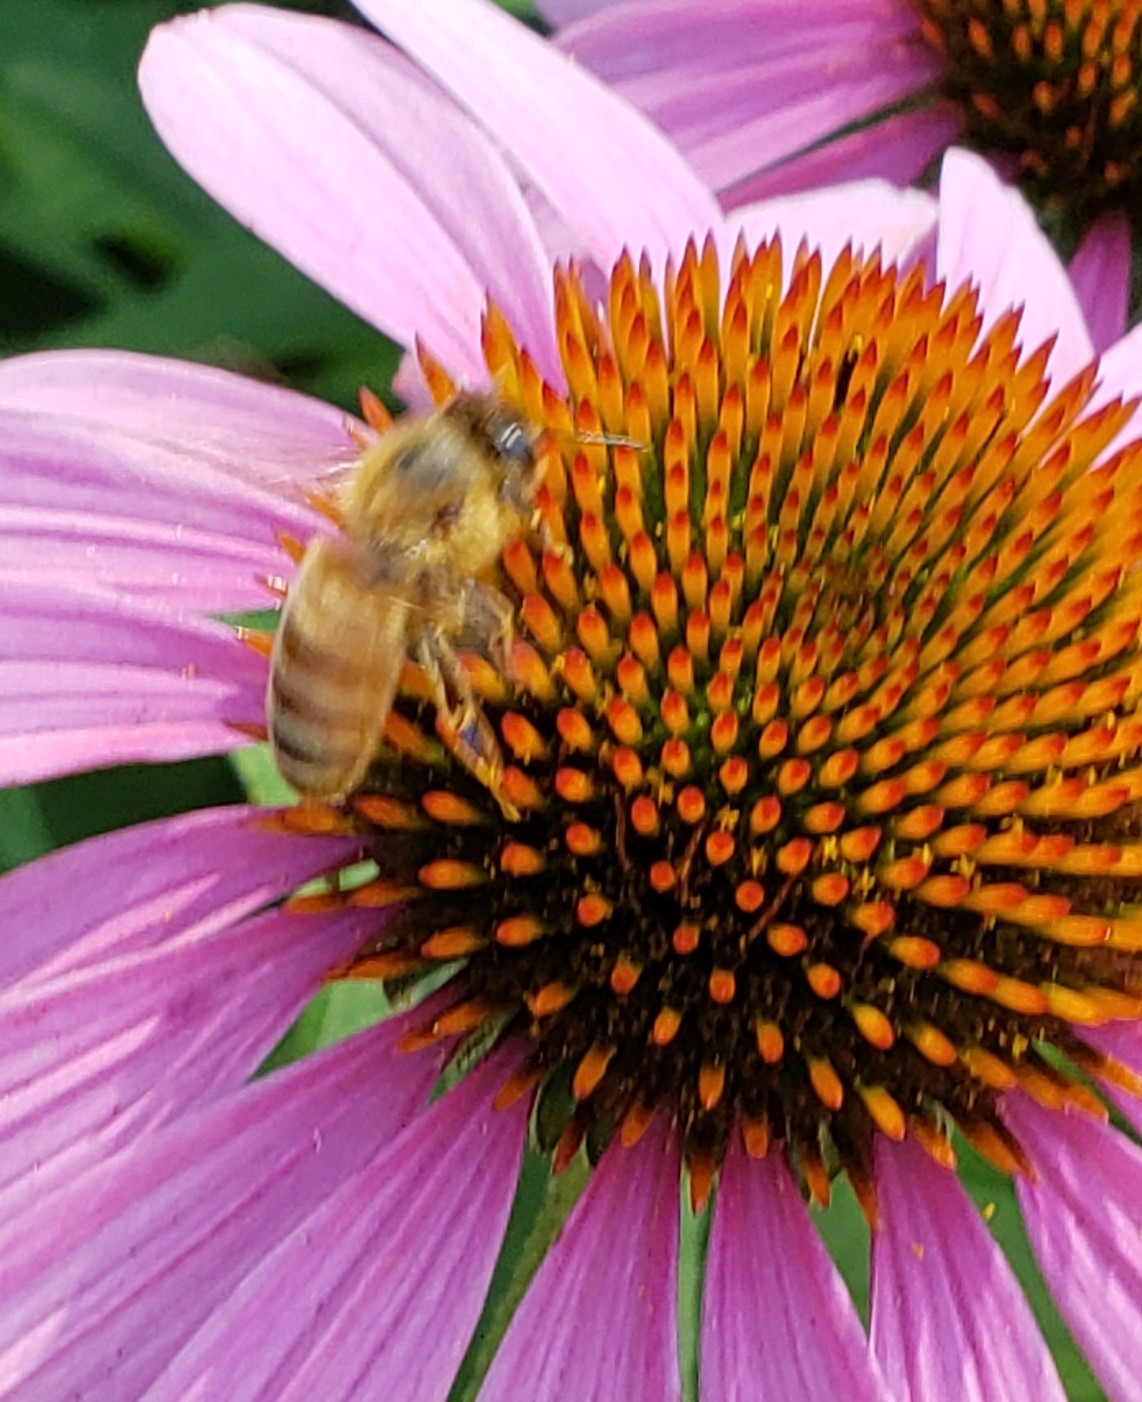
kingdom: Animalia
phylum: Arthropoda
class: Insecta
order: Hymenoptera
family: Apidae
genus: Apis
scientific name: Apis mellifera
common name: Honey bee
